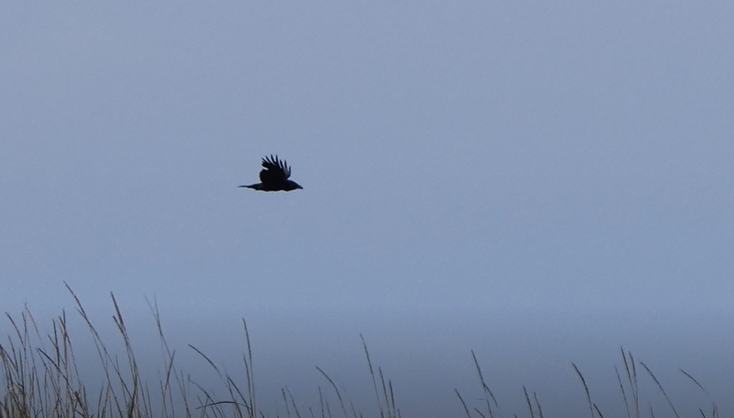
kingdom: Animalia
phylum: Chordata
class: Aves
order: Passeriformes
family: Corvidae
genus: Corvus
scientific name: Corvus corax
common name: Common raven
